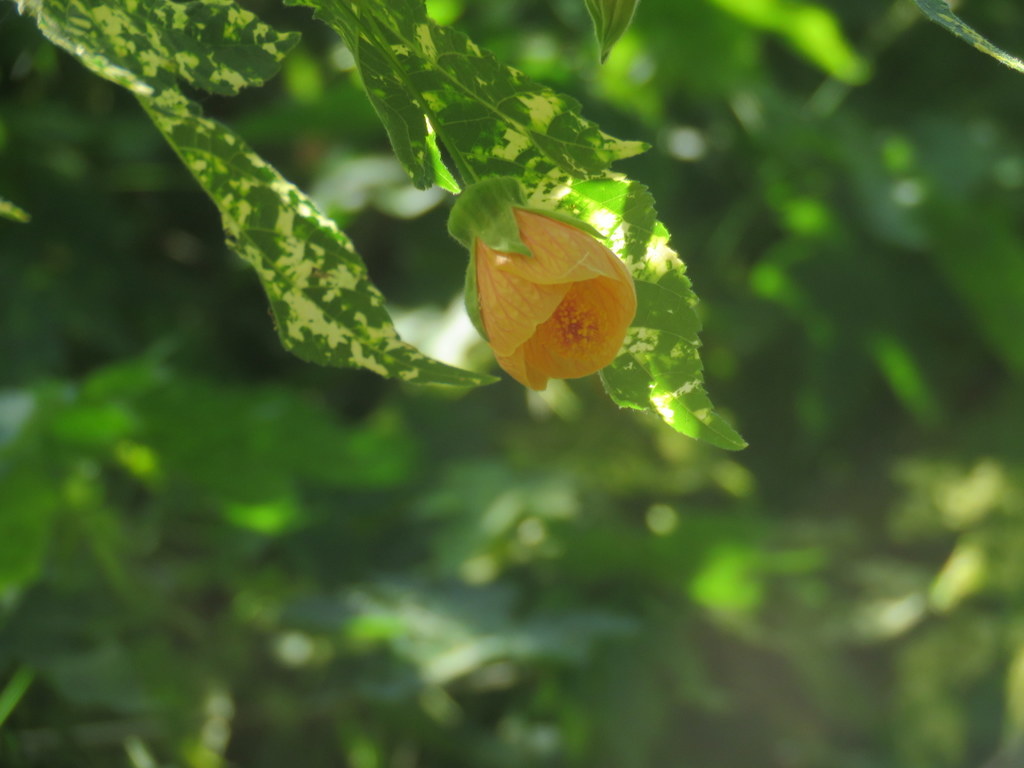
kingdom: Plantae
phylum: Tracheophyta
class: Magnoliopsida
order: Malvales
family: Malvaceae
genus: Callianthe
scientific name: Callianthe picta
